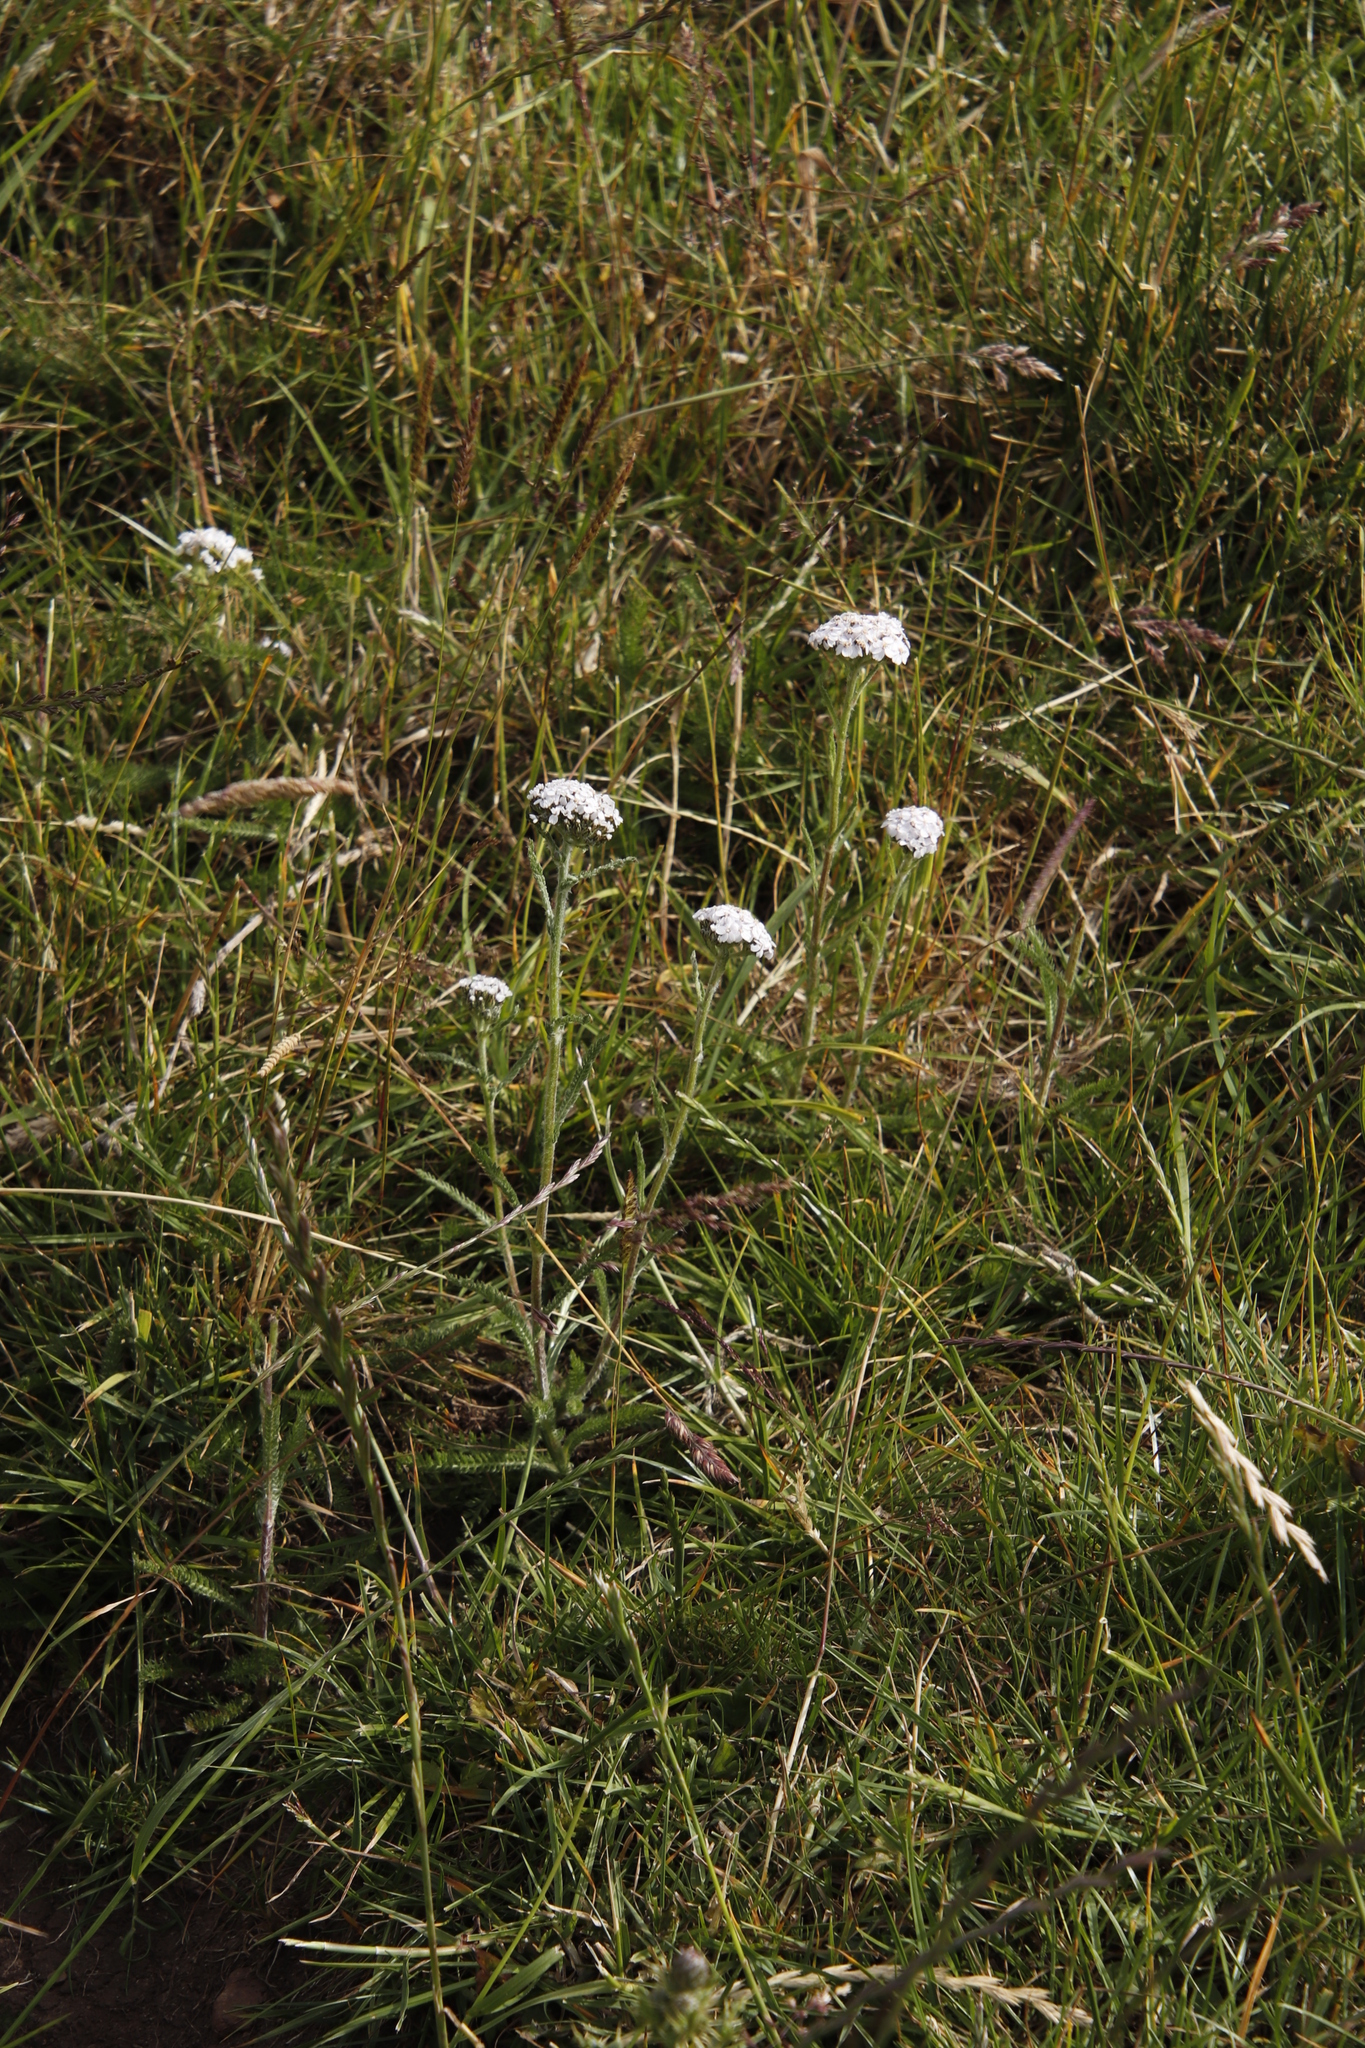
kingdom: Plantae
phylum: Tracheophyta
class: Magnoliopsida
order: Asterales
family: Asteraceae
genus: Achillea
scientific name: Achillea millefolium
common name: Yarrow
